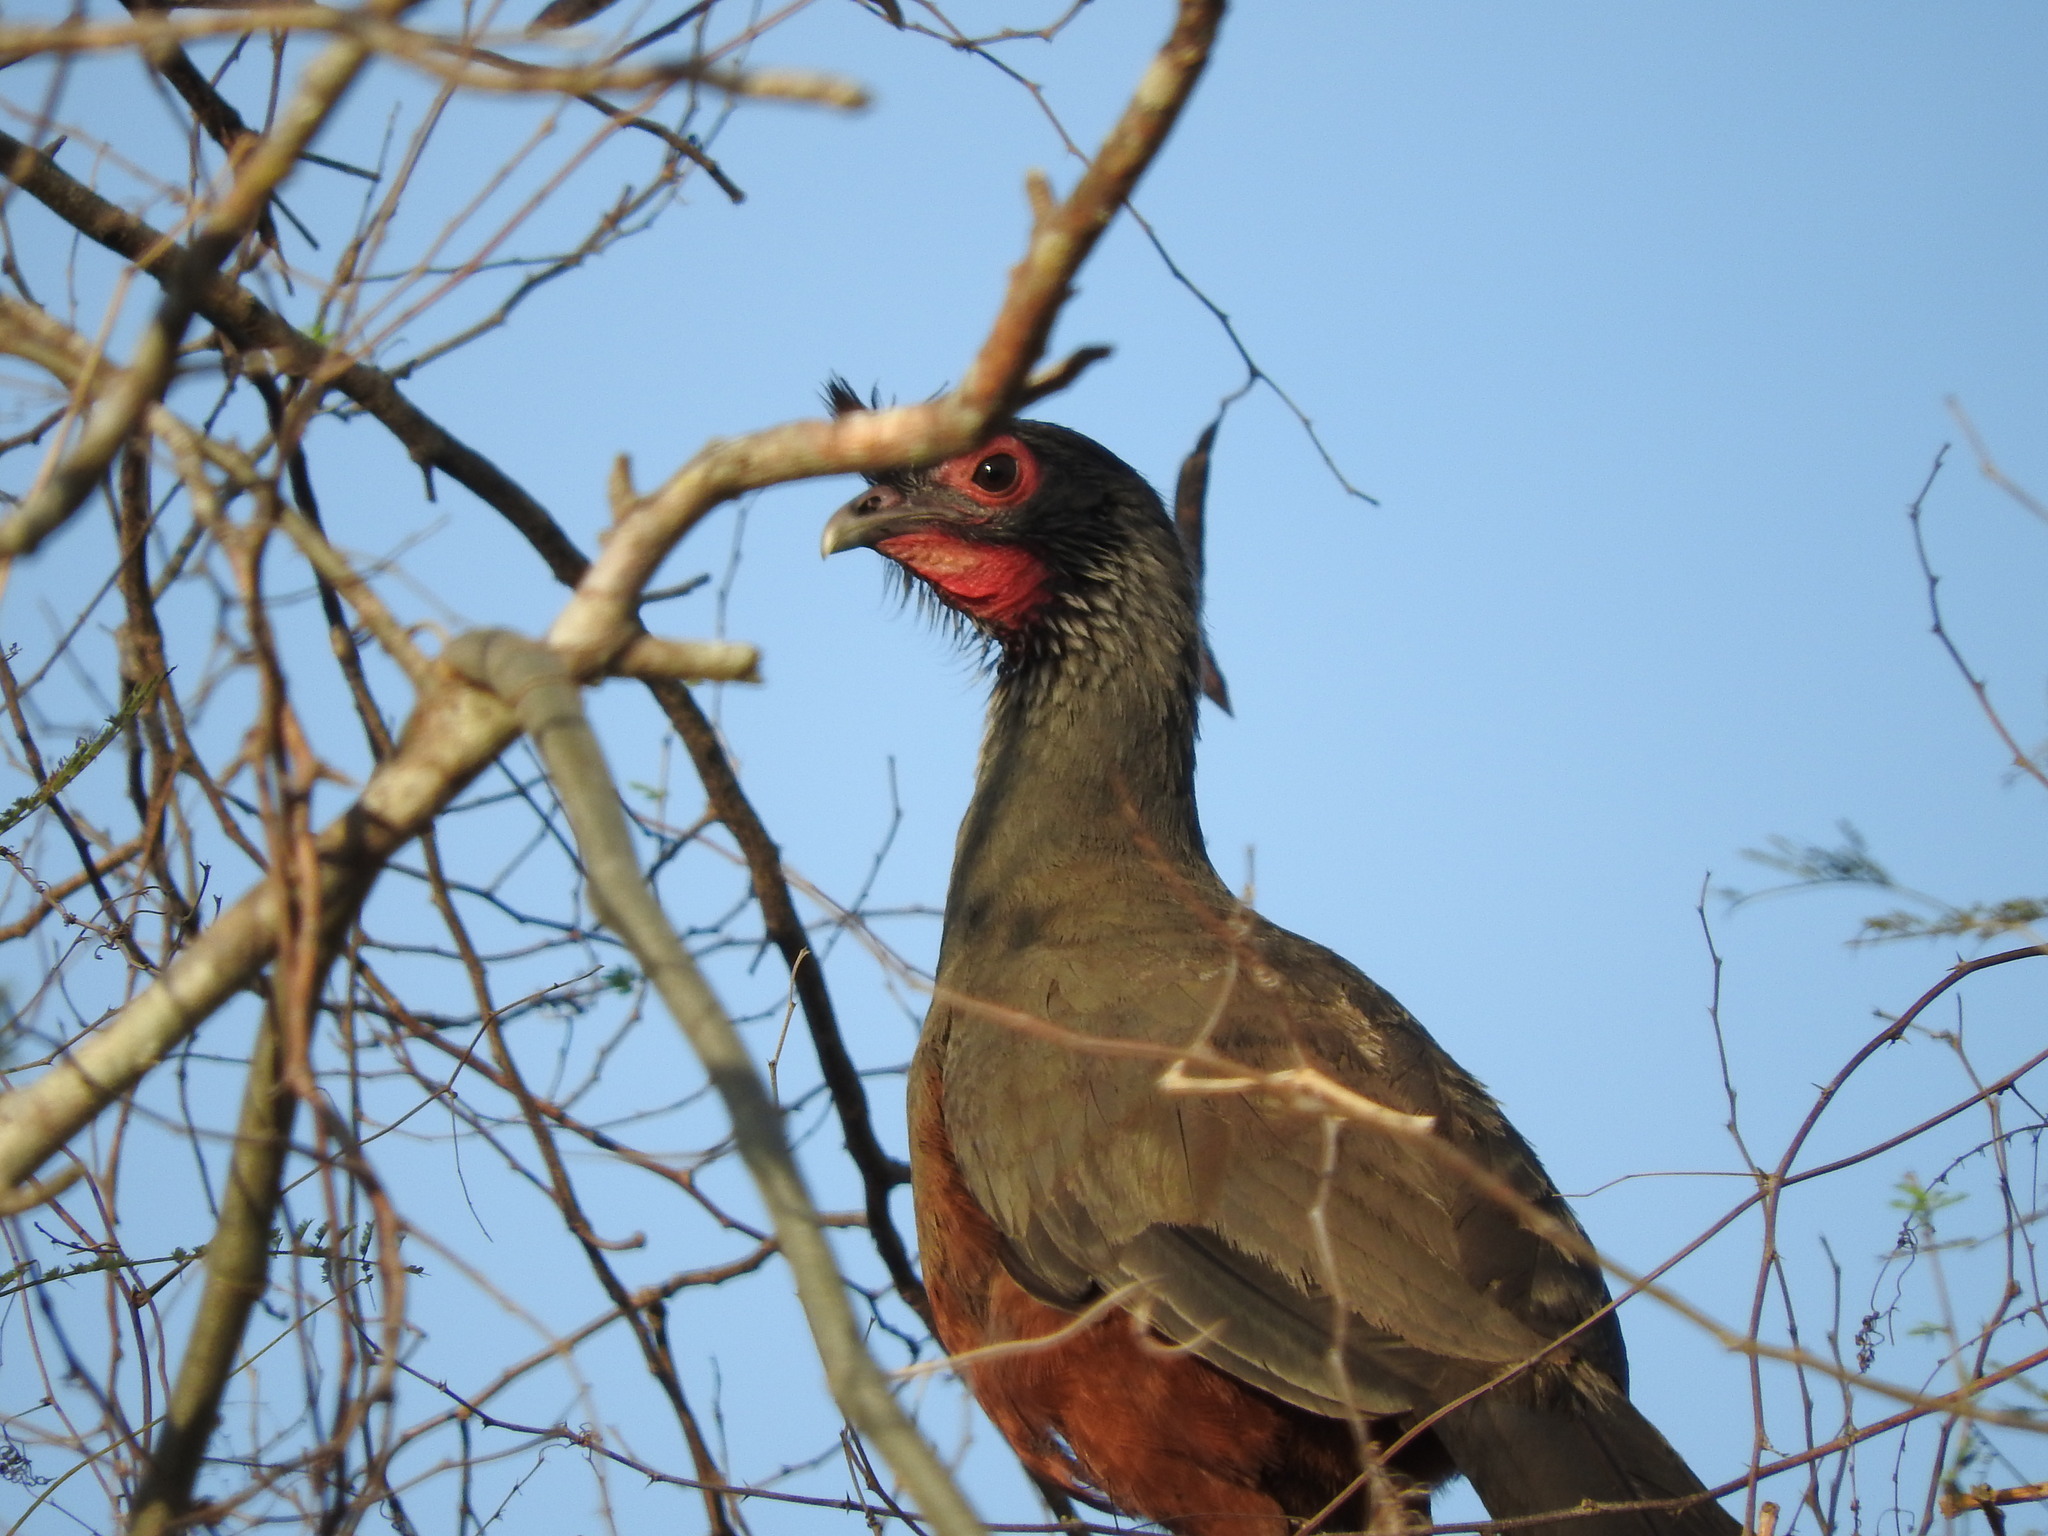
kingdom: Animalia
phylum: Chordata
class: Aves
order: Galliformes
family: Cracidae
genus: Ortalis
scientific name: Ortalis wagleri
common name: Rufous-bellied chachalaca
